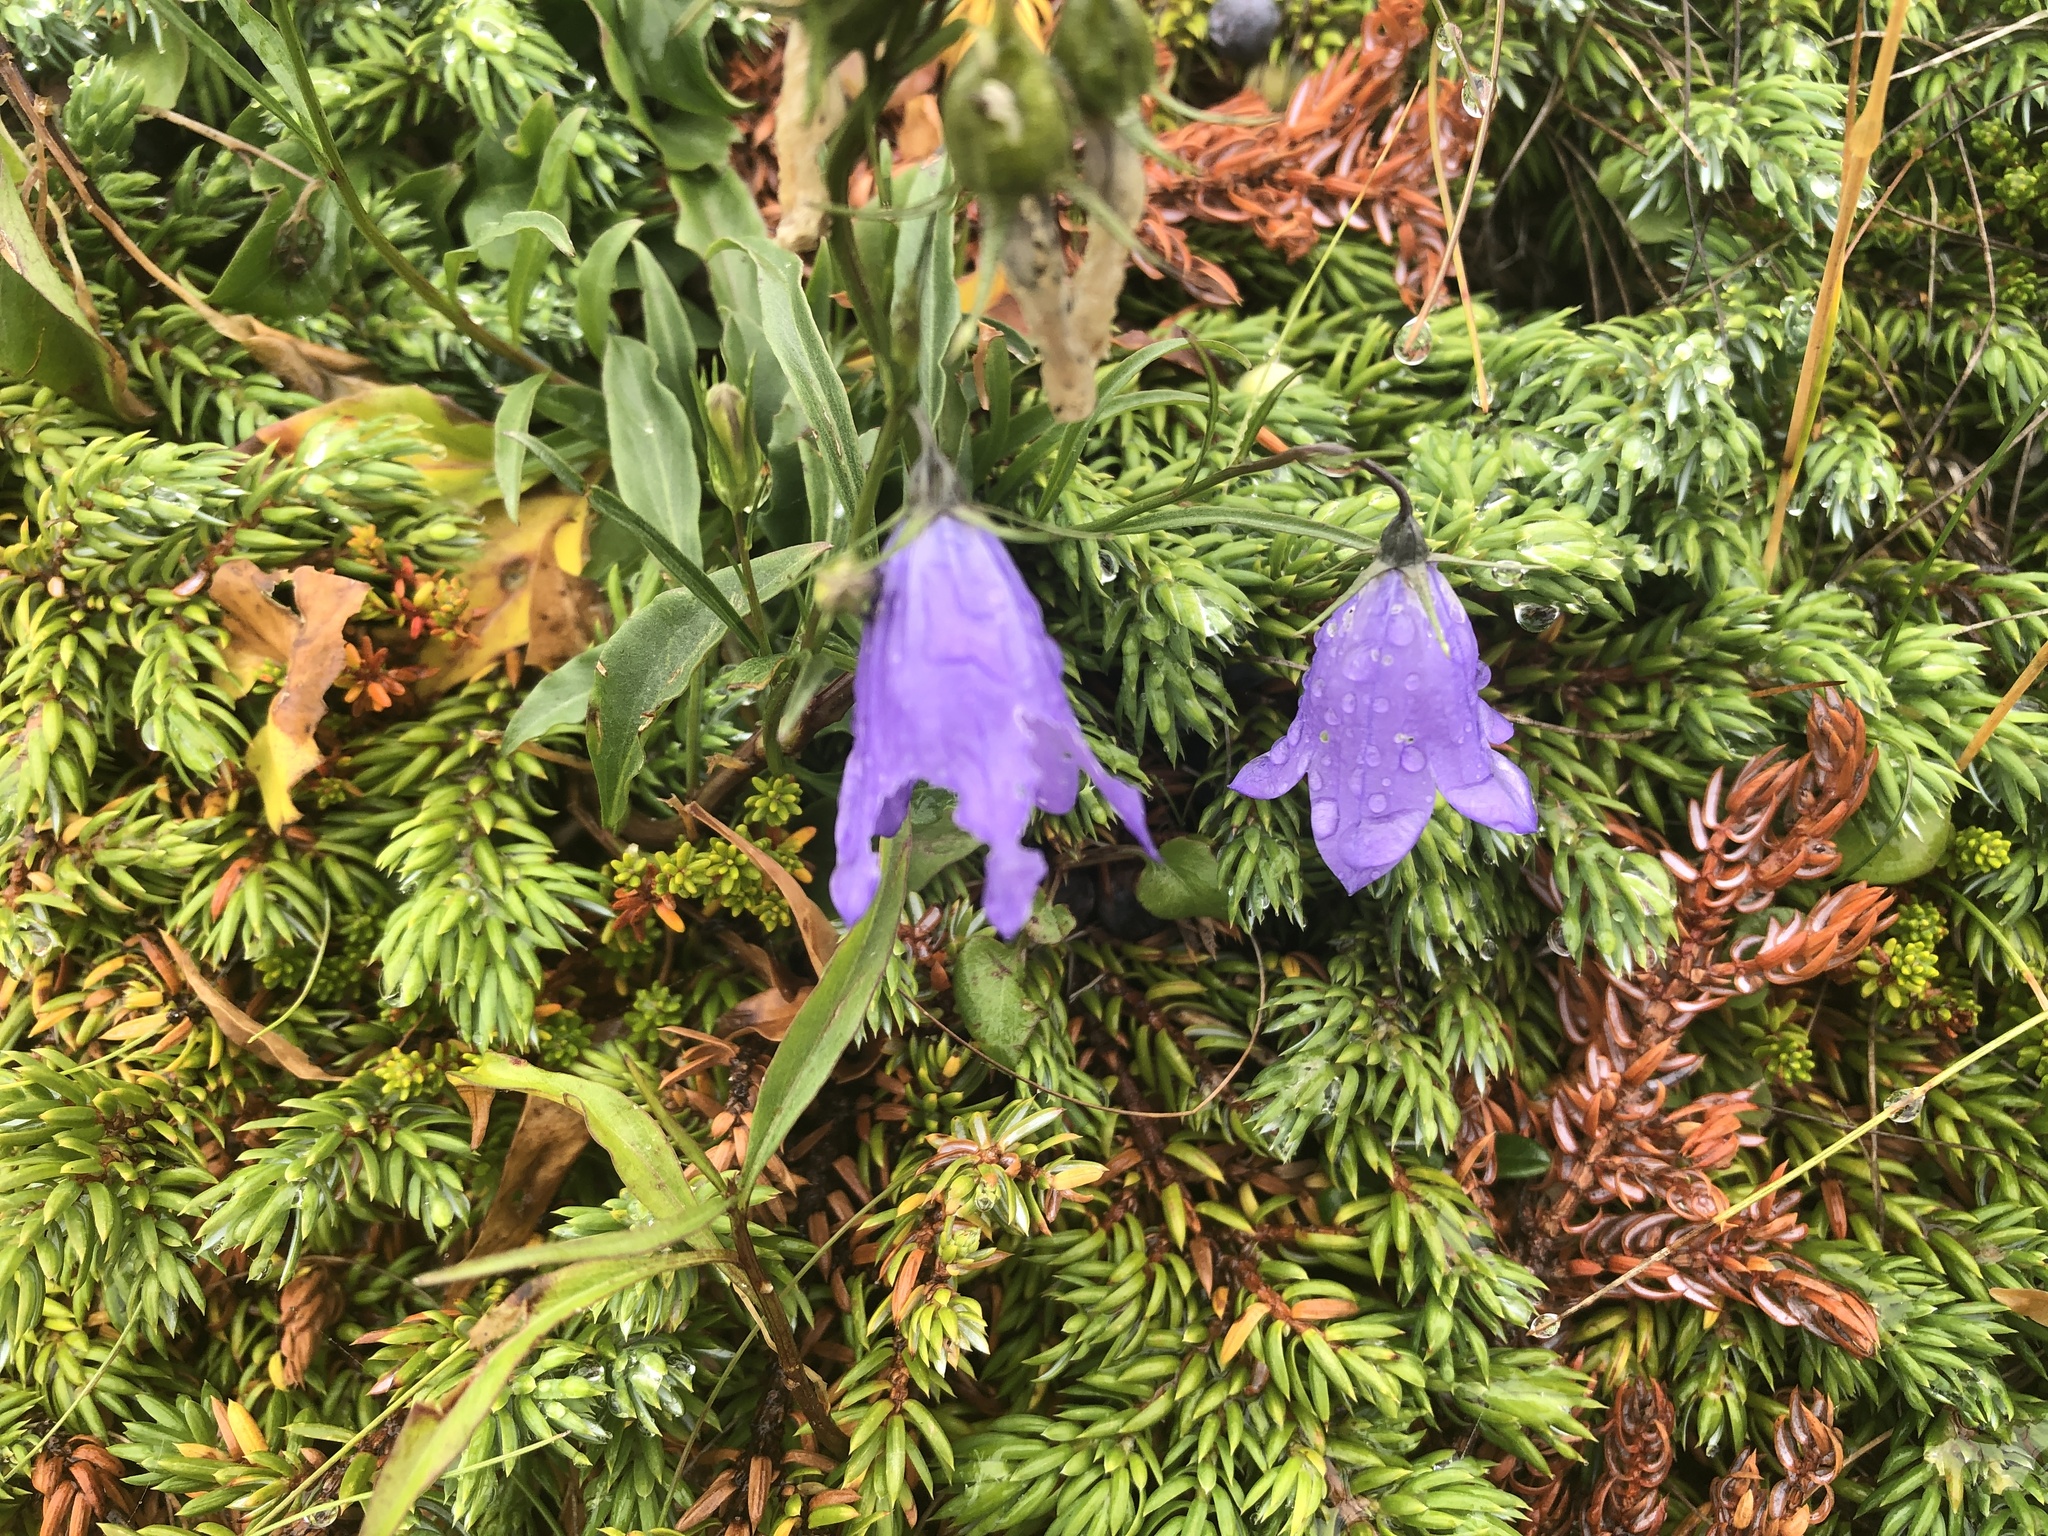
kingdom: Plantae
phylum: Tracheophyta
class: Magnoliopsida
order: Asterales
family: Campanulaceae
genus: Campanula
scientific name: Campanula giesekiana
